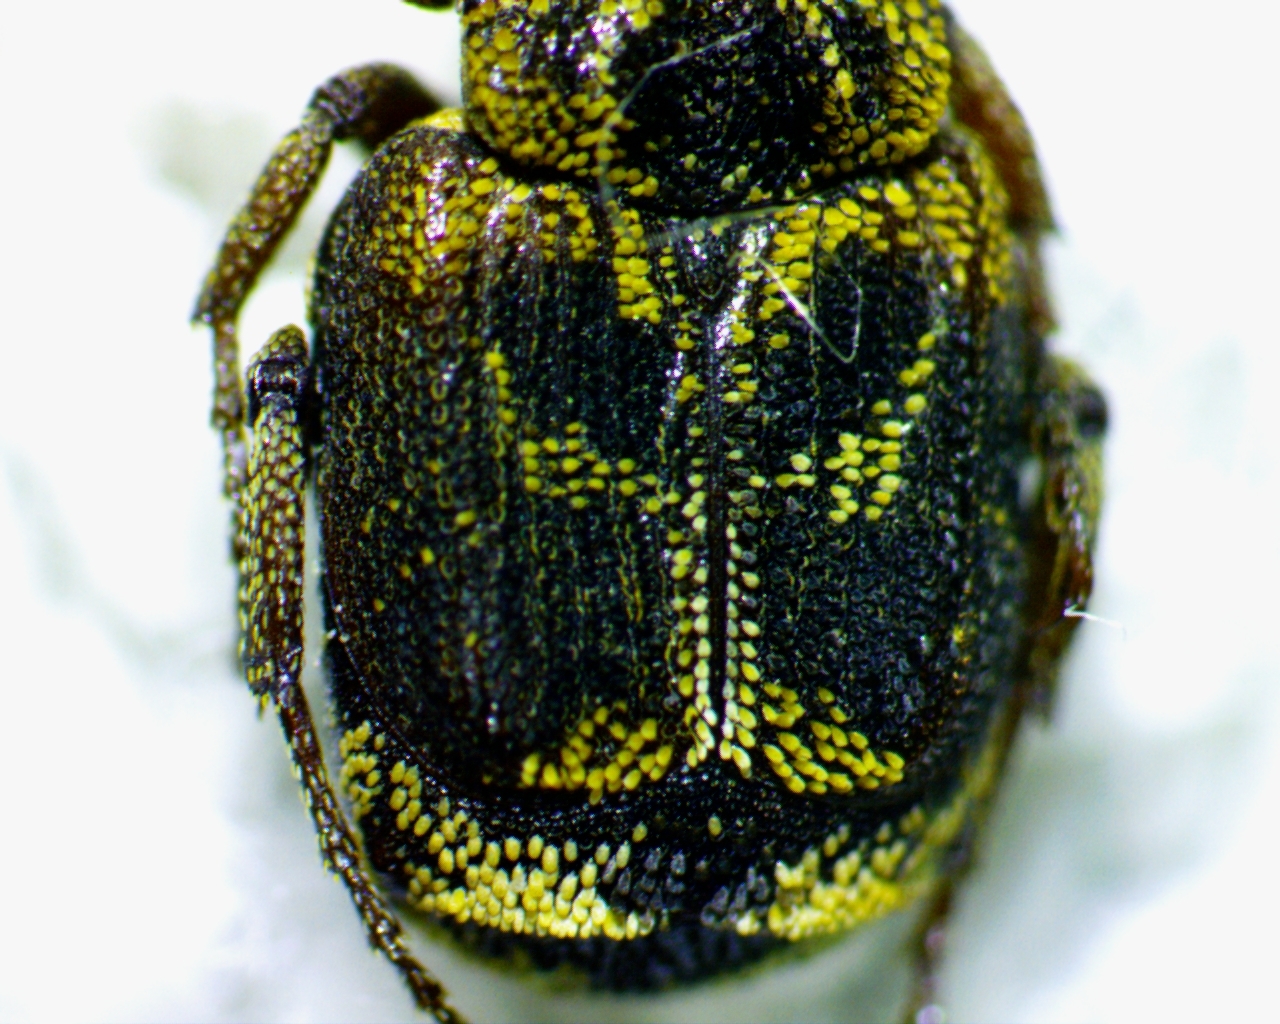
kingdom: Animalia
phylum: Arthropoda
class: Insecta
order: Coleoptera
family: Scarabaeidae
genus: Valgus
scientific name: Valgus canaliculatus
